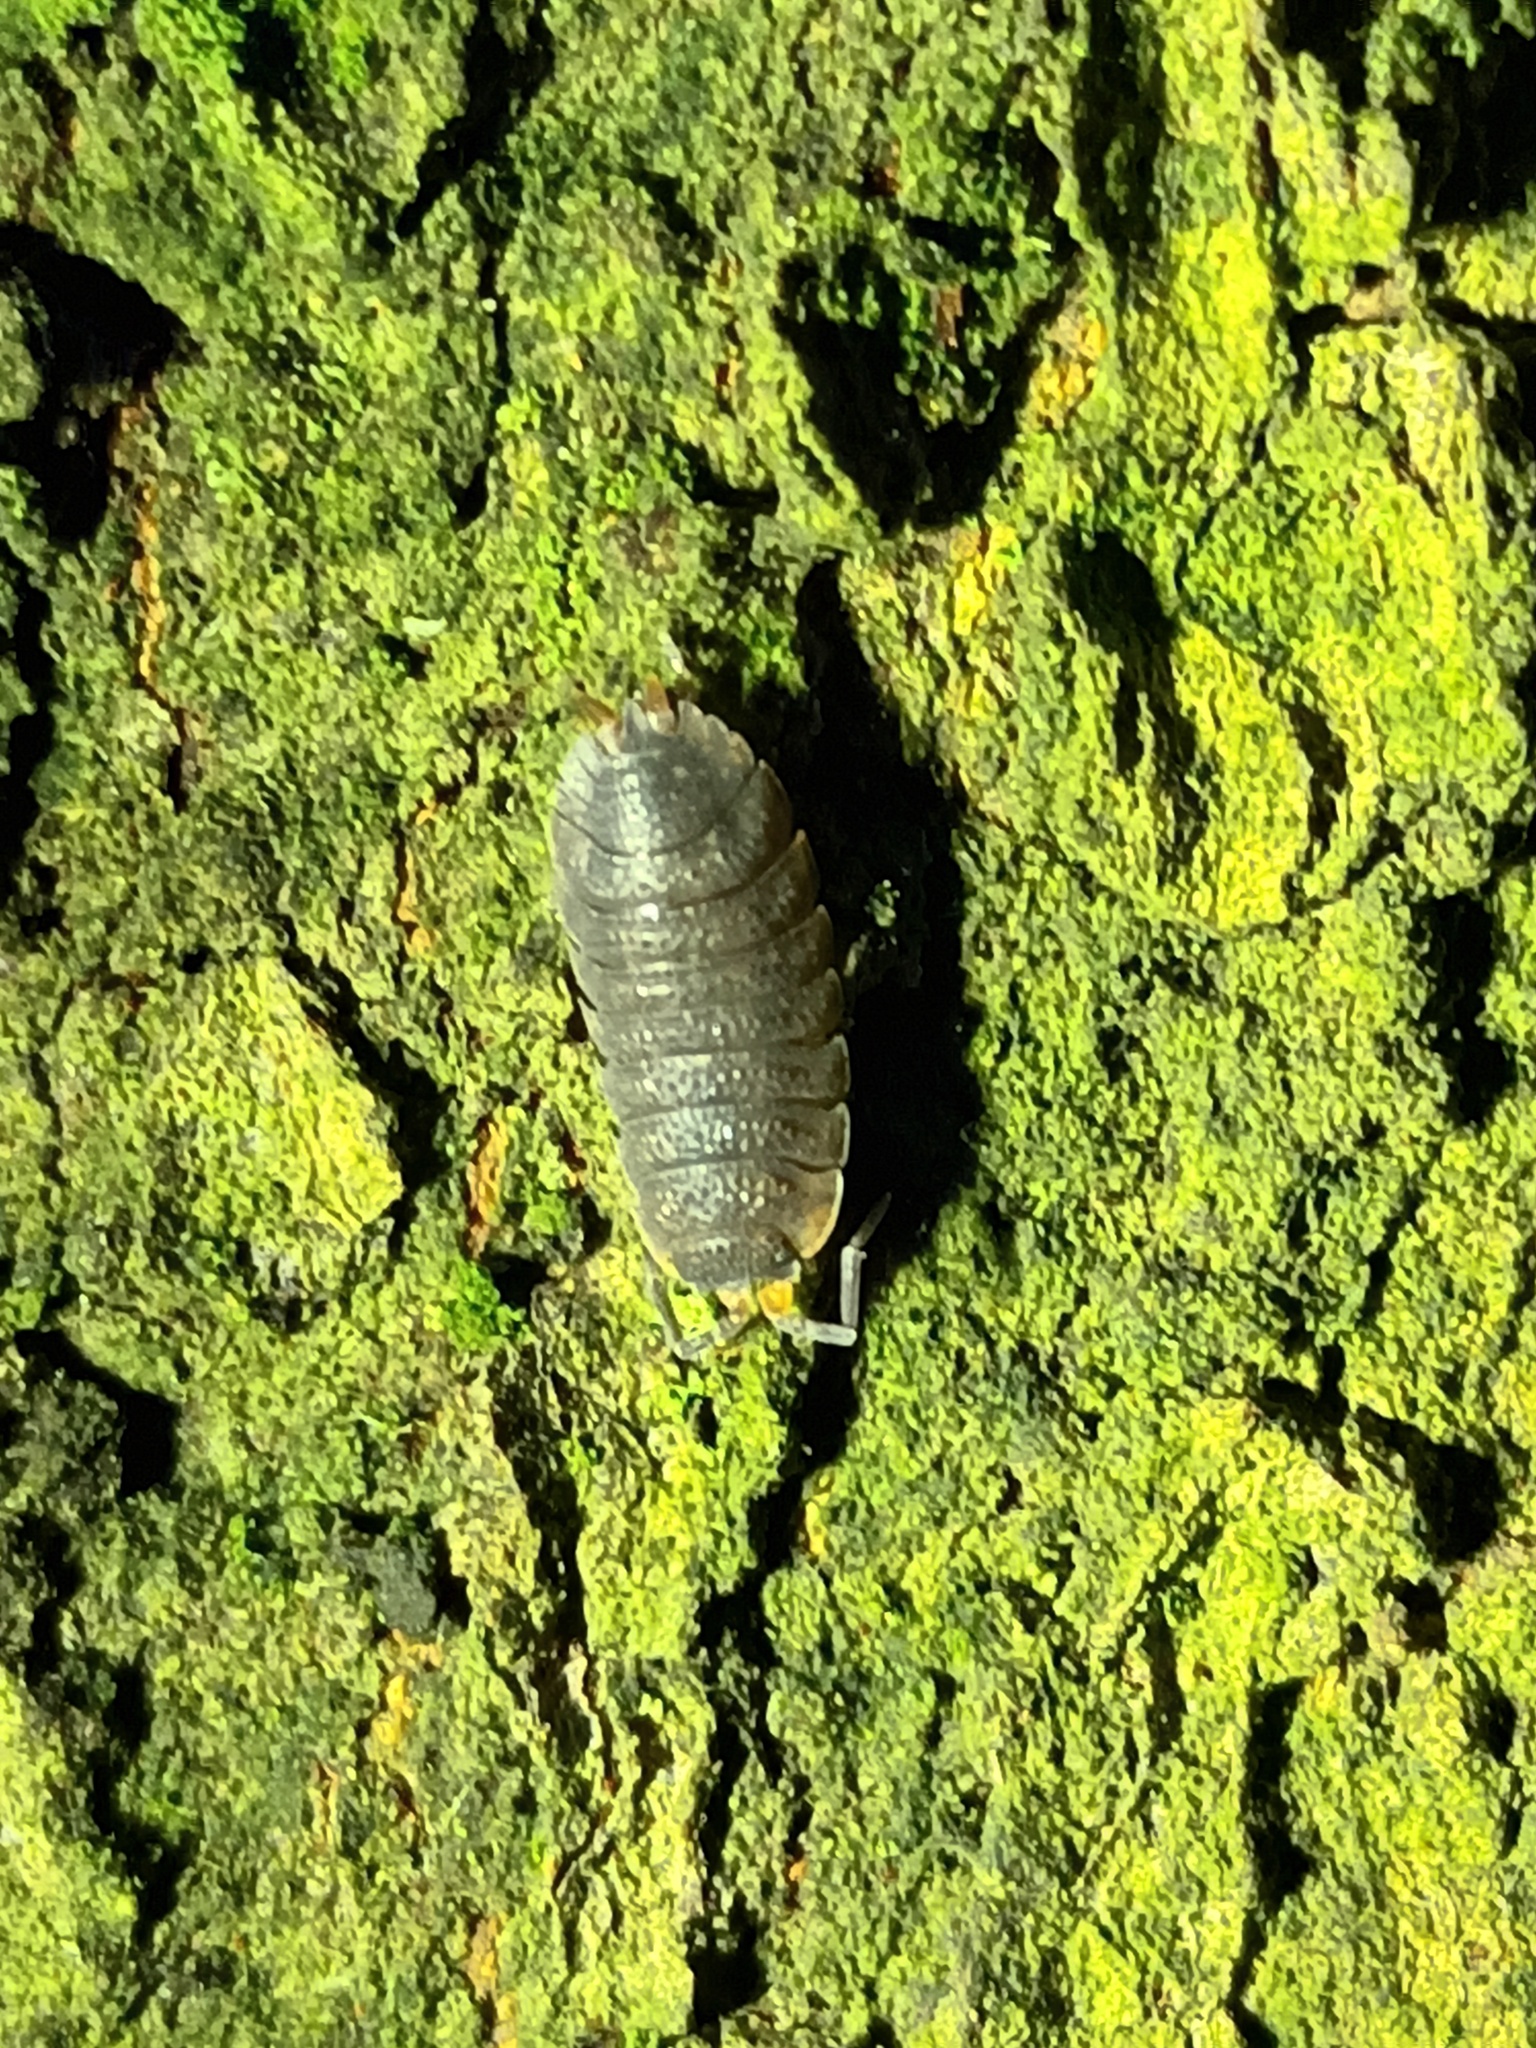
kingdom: Animalia
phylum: Arthropoda
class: Malacostraca
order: Isopoda
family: Porcellionidae
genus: Porcellio
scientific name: Porcellio scaber
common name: Common rough woodlouse
